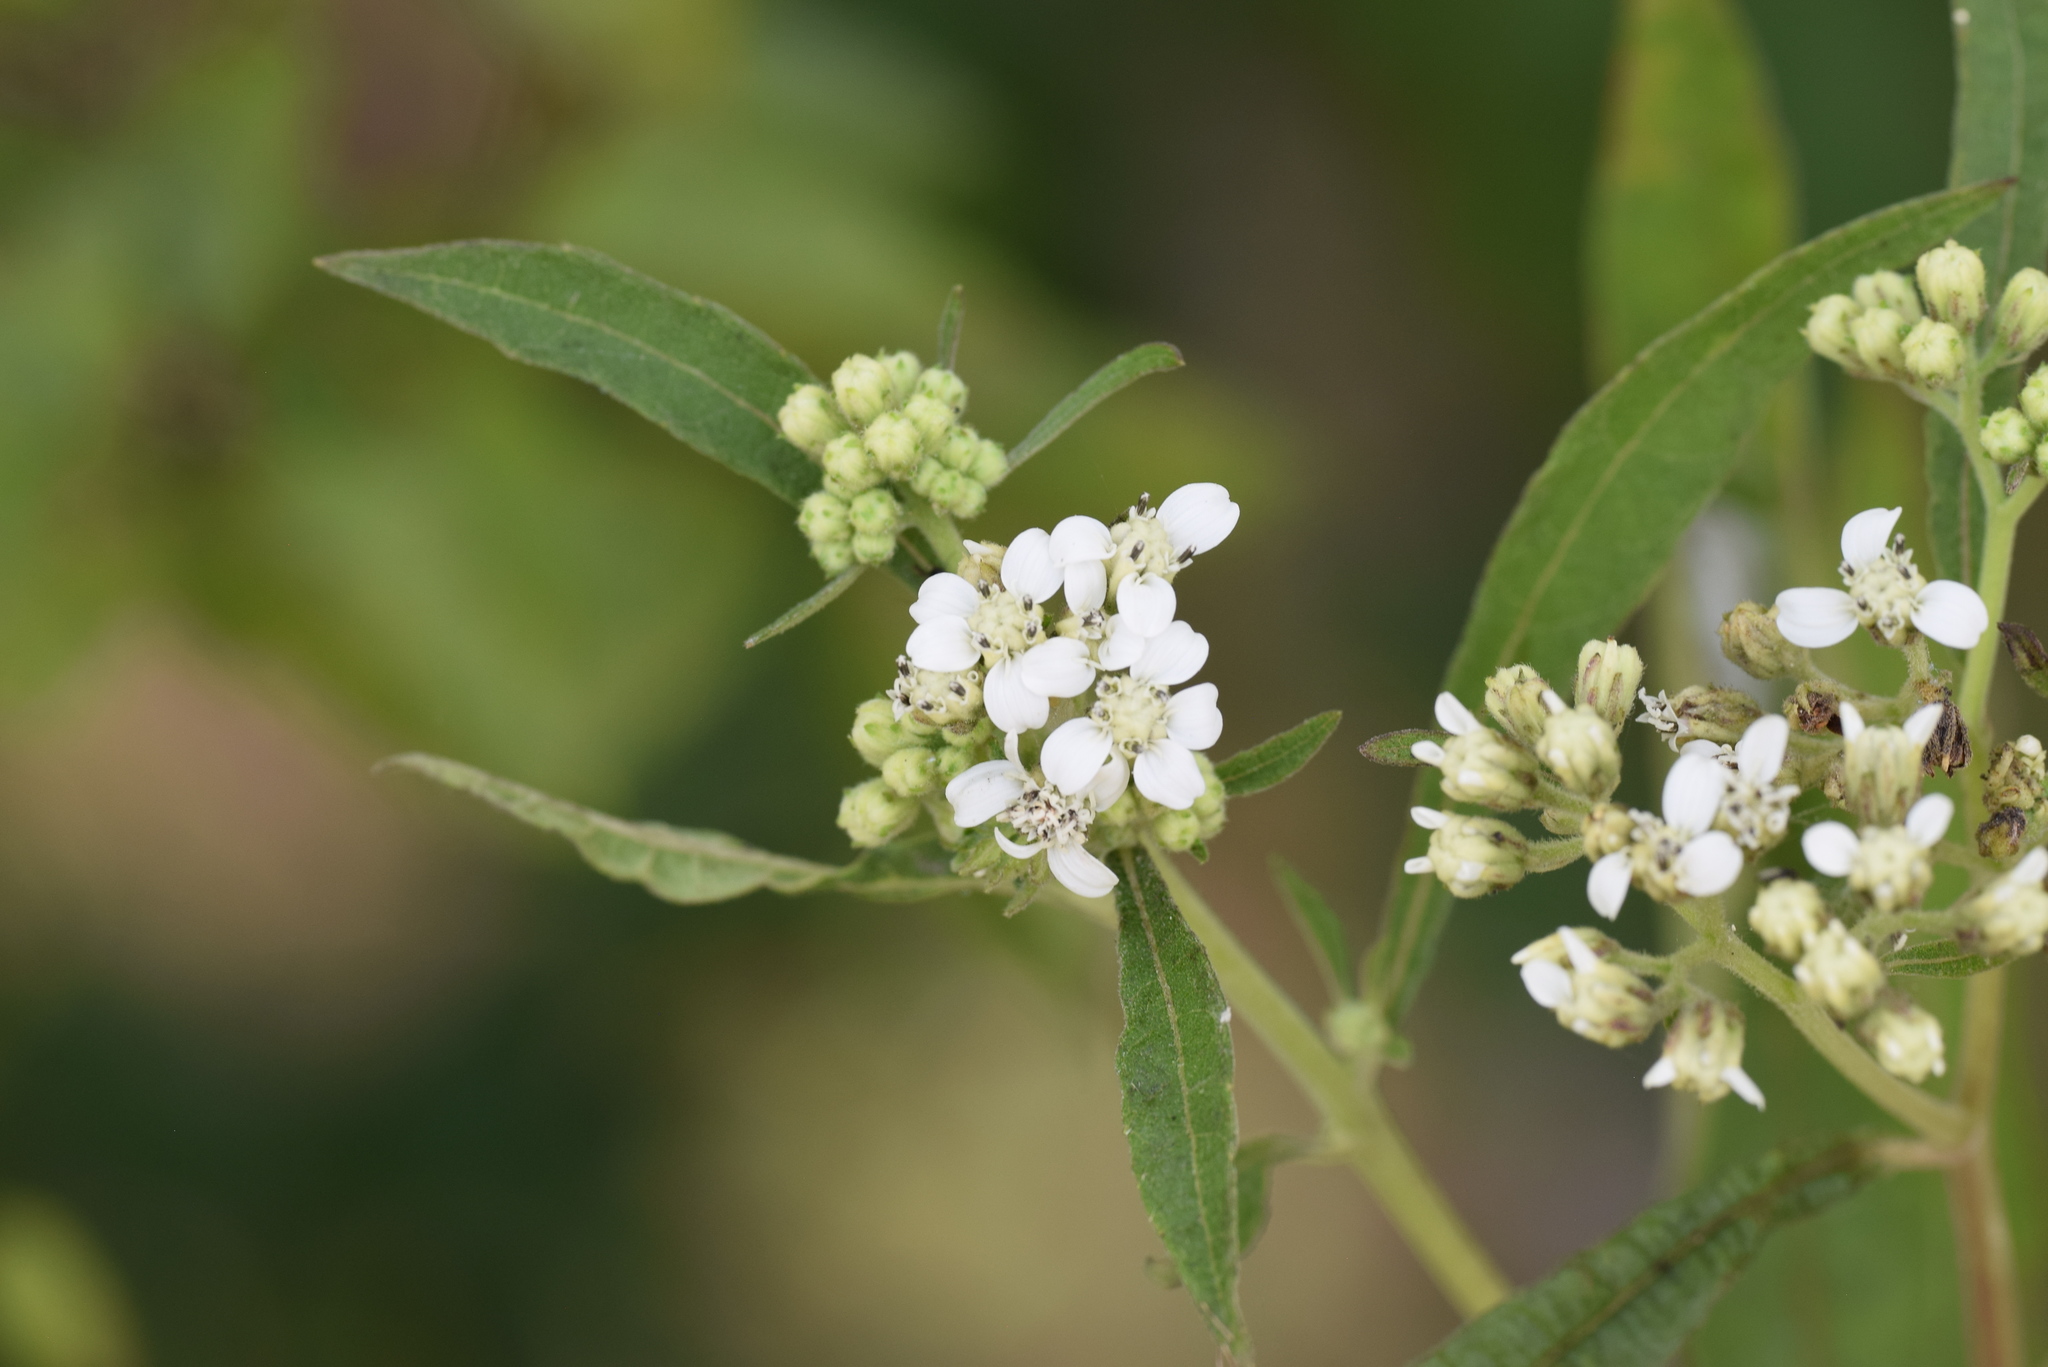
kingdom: Plantae
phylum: Tracheophyta
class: Magnoliopsida
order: Asterales
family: Asteraceae
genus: Verbesina
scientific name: Verbesina virginica
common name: Frostweed
